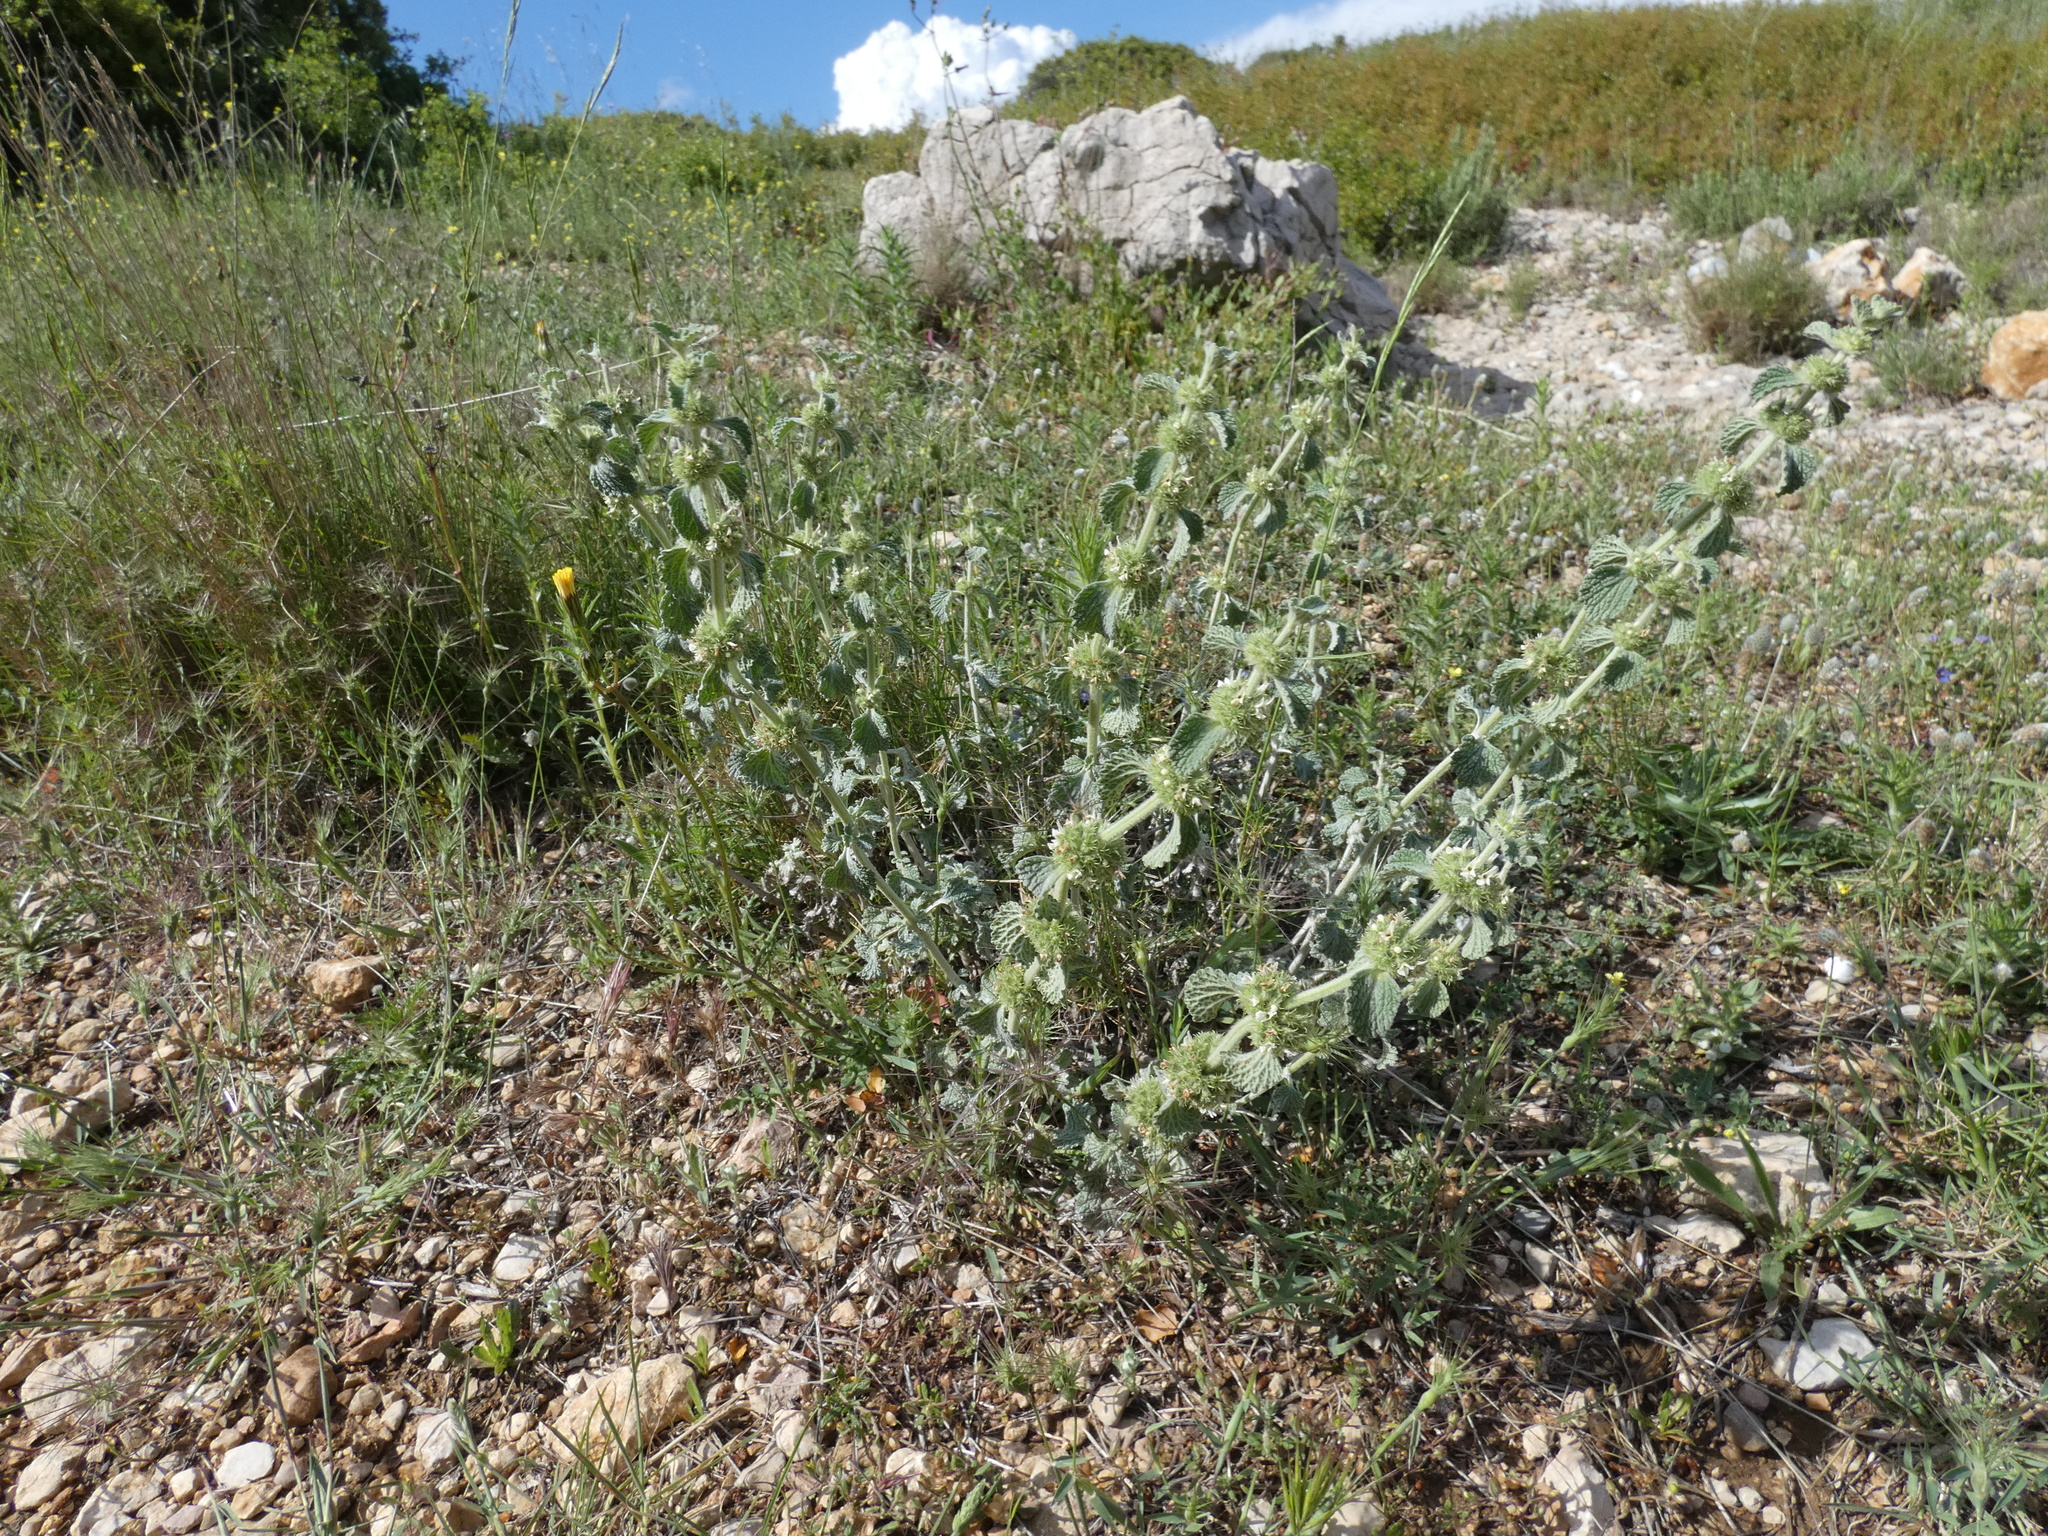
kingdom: Plantae
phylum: Tracheophyta
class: Magnoliopsida
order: Lamiales
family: Lamiaceae
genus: Marrubium
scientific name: Marrubium vulgare
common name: Horehound
